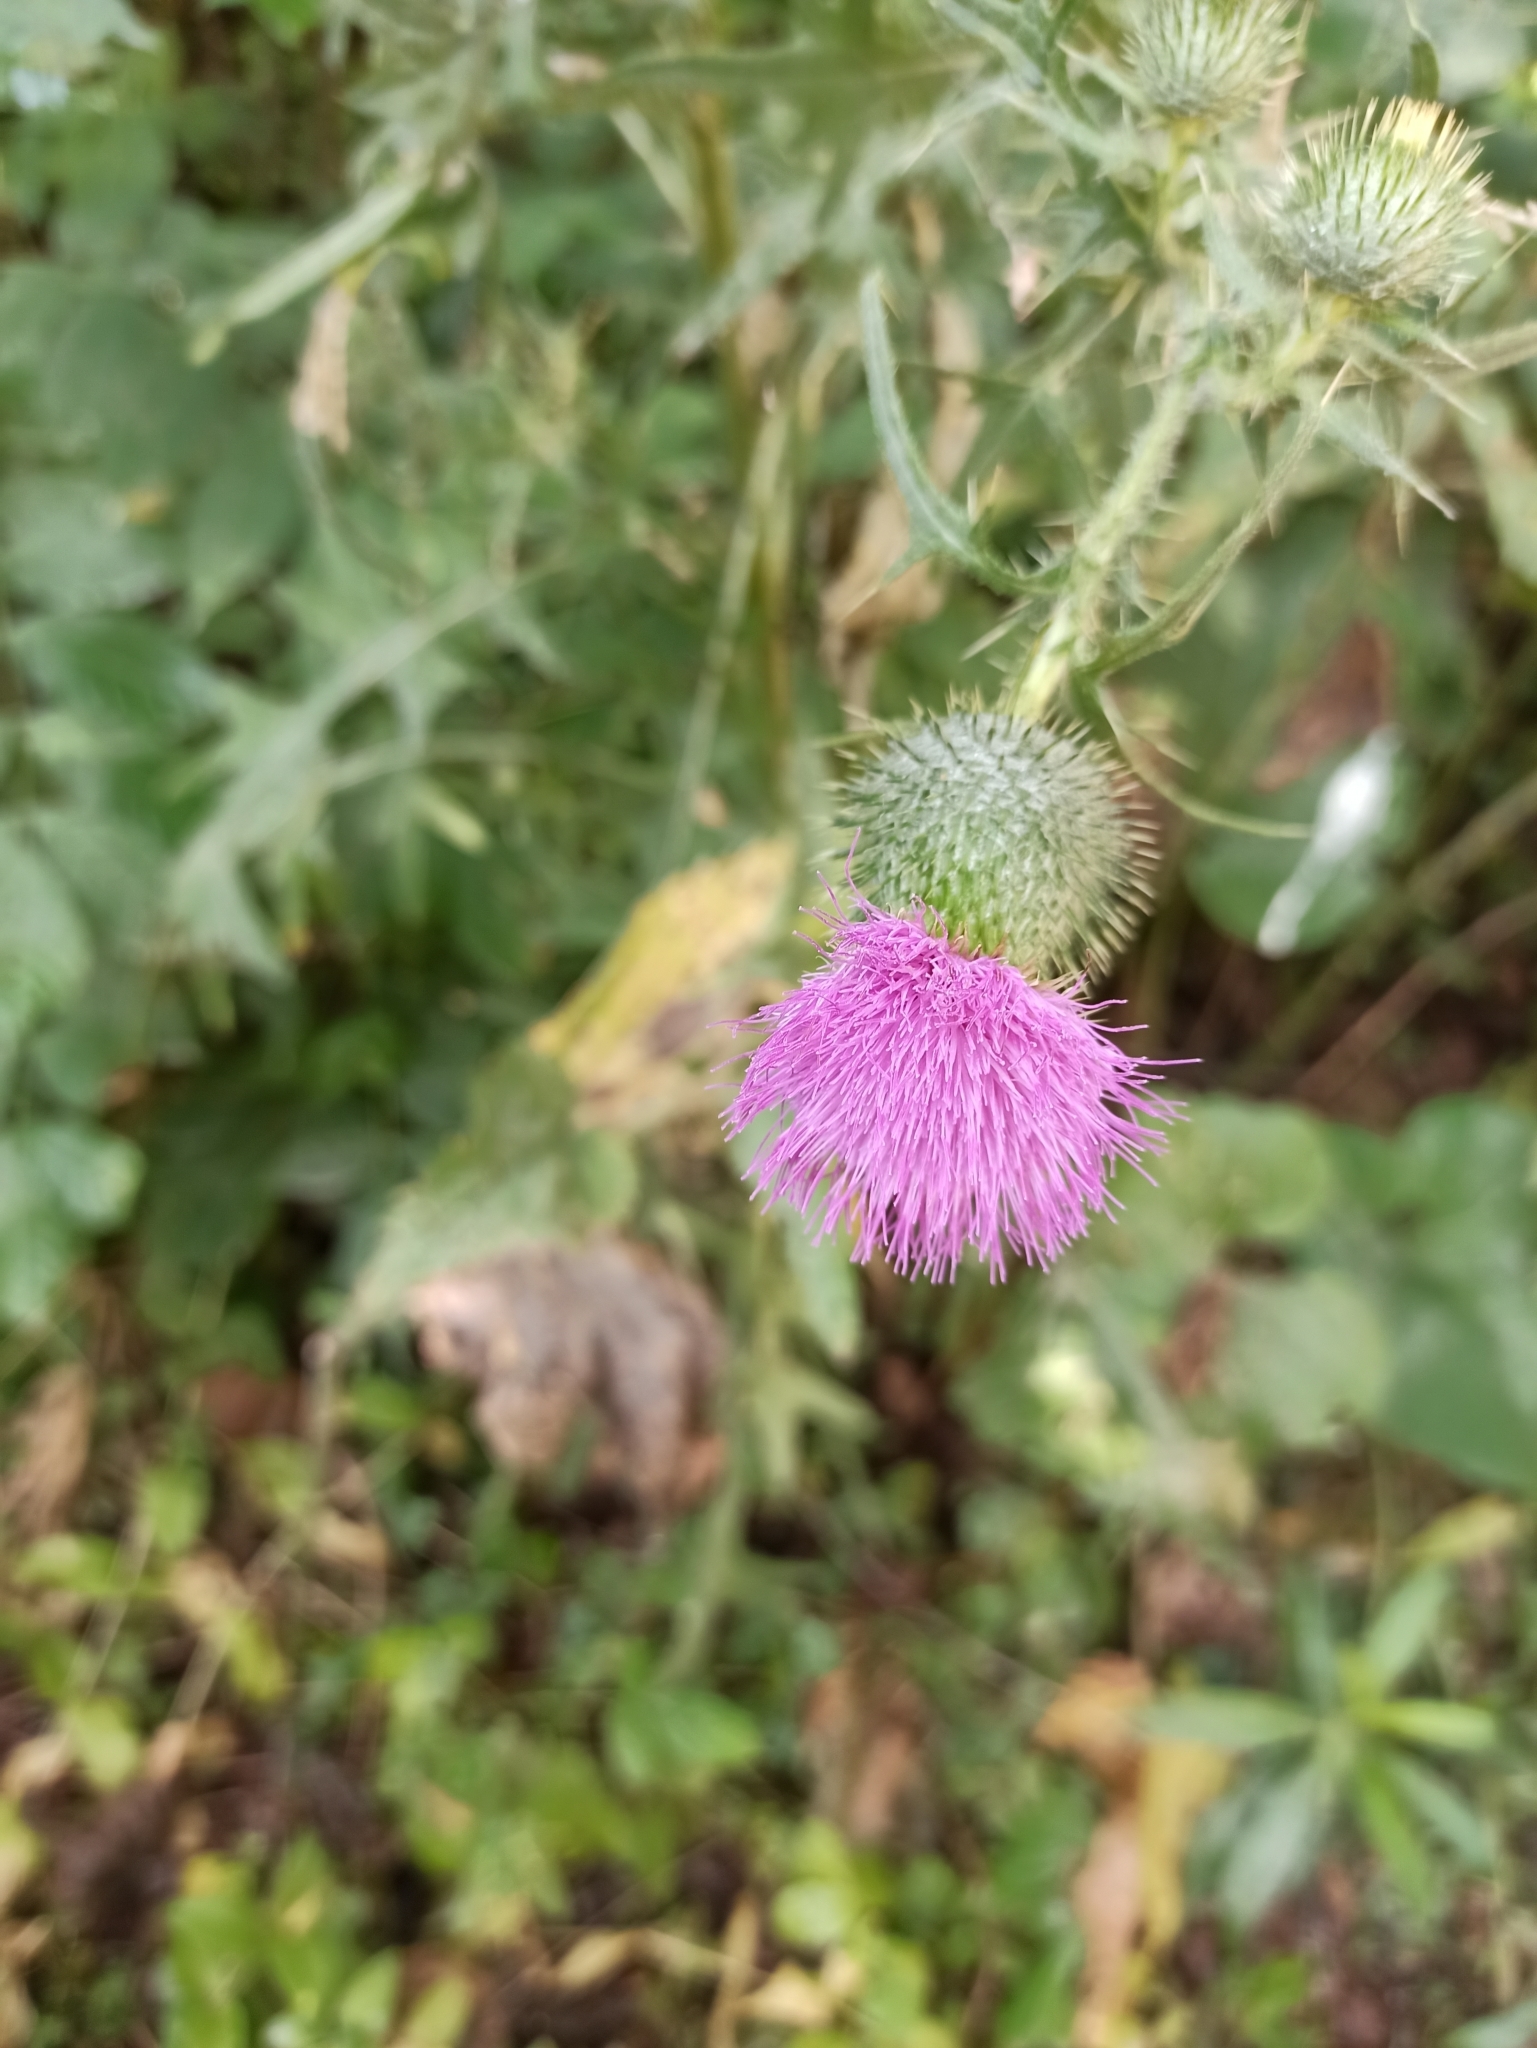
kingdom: Plantae
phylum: Tracheophyta
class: Magnoliopsida
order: Asterales
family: Asteraceae
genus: Cirsium
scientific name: Cirsium vulgare
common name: Bull thistle
